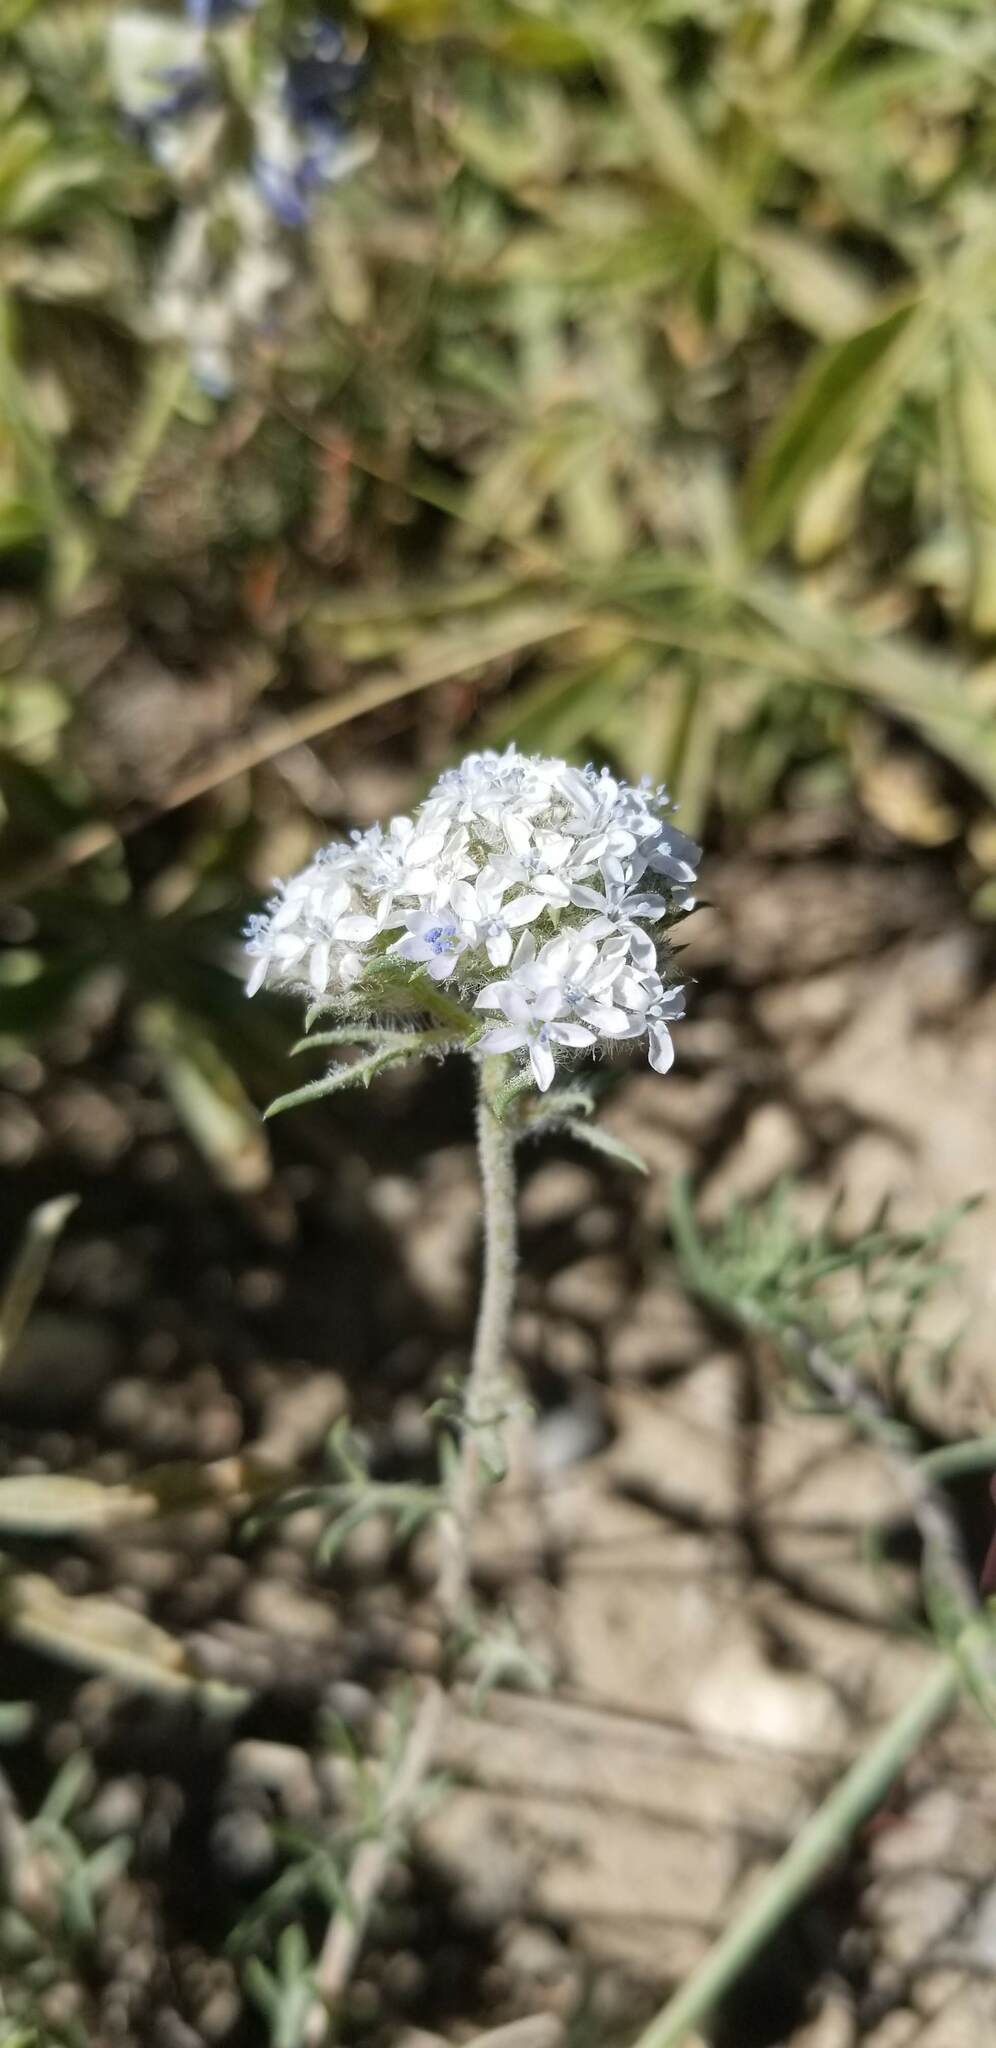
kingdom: Plantae
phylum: Tracheophyta
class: Magnoliopsida
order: Ericales
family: Polemoniaceae
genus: Ipomopsis
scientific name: Ipomopsis congesta
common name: Ball-head gilia
